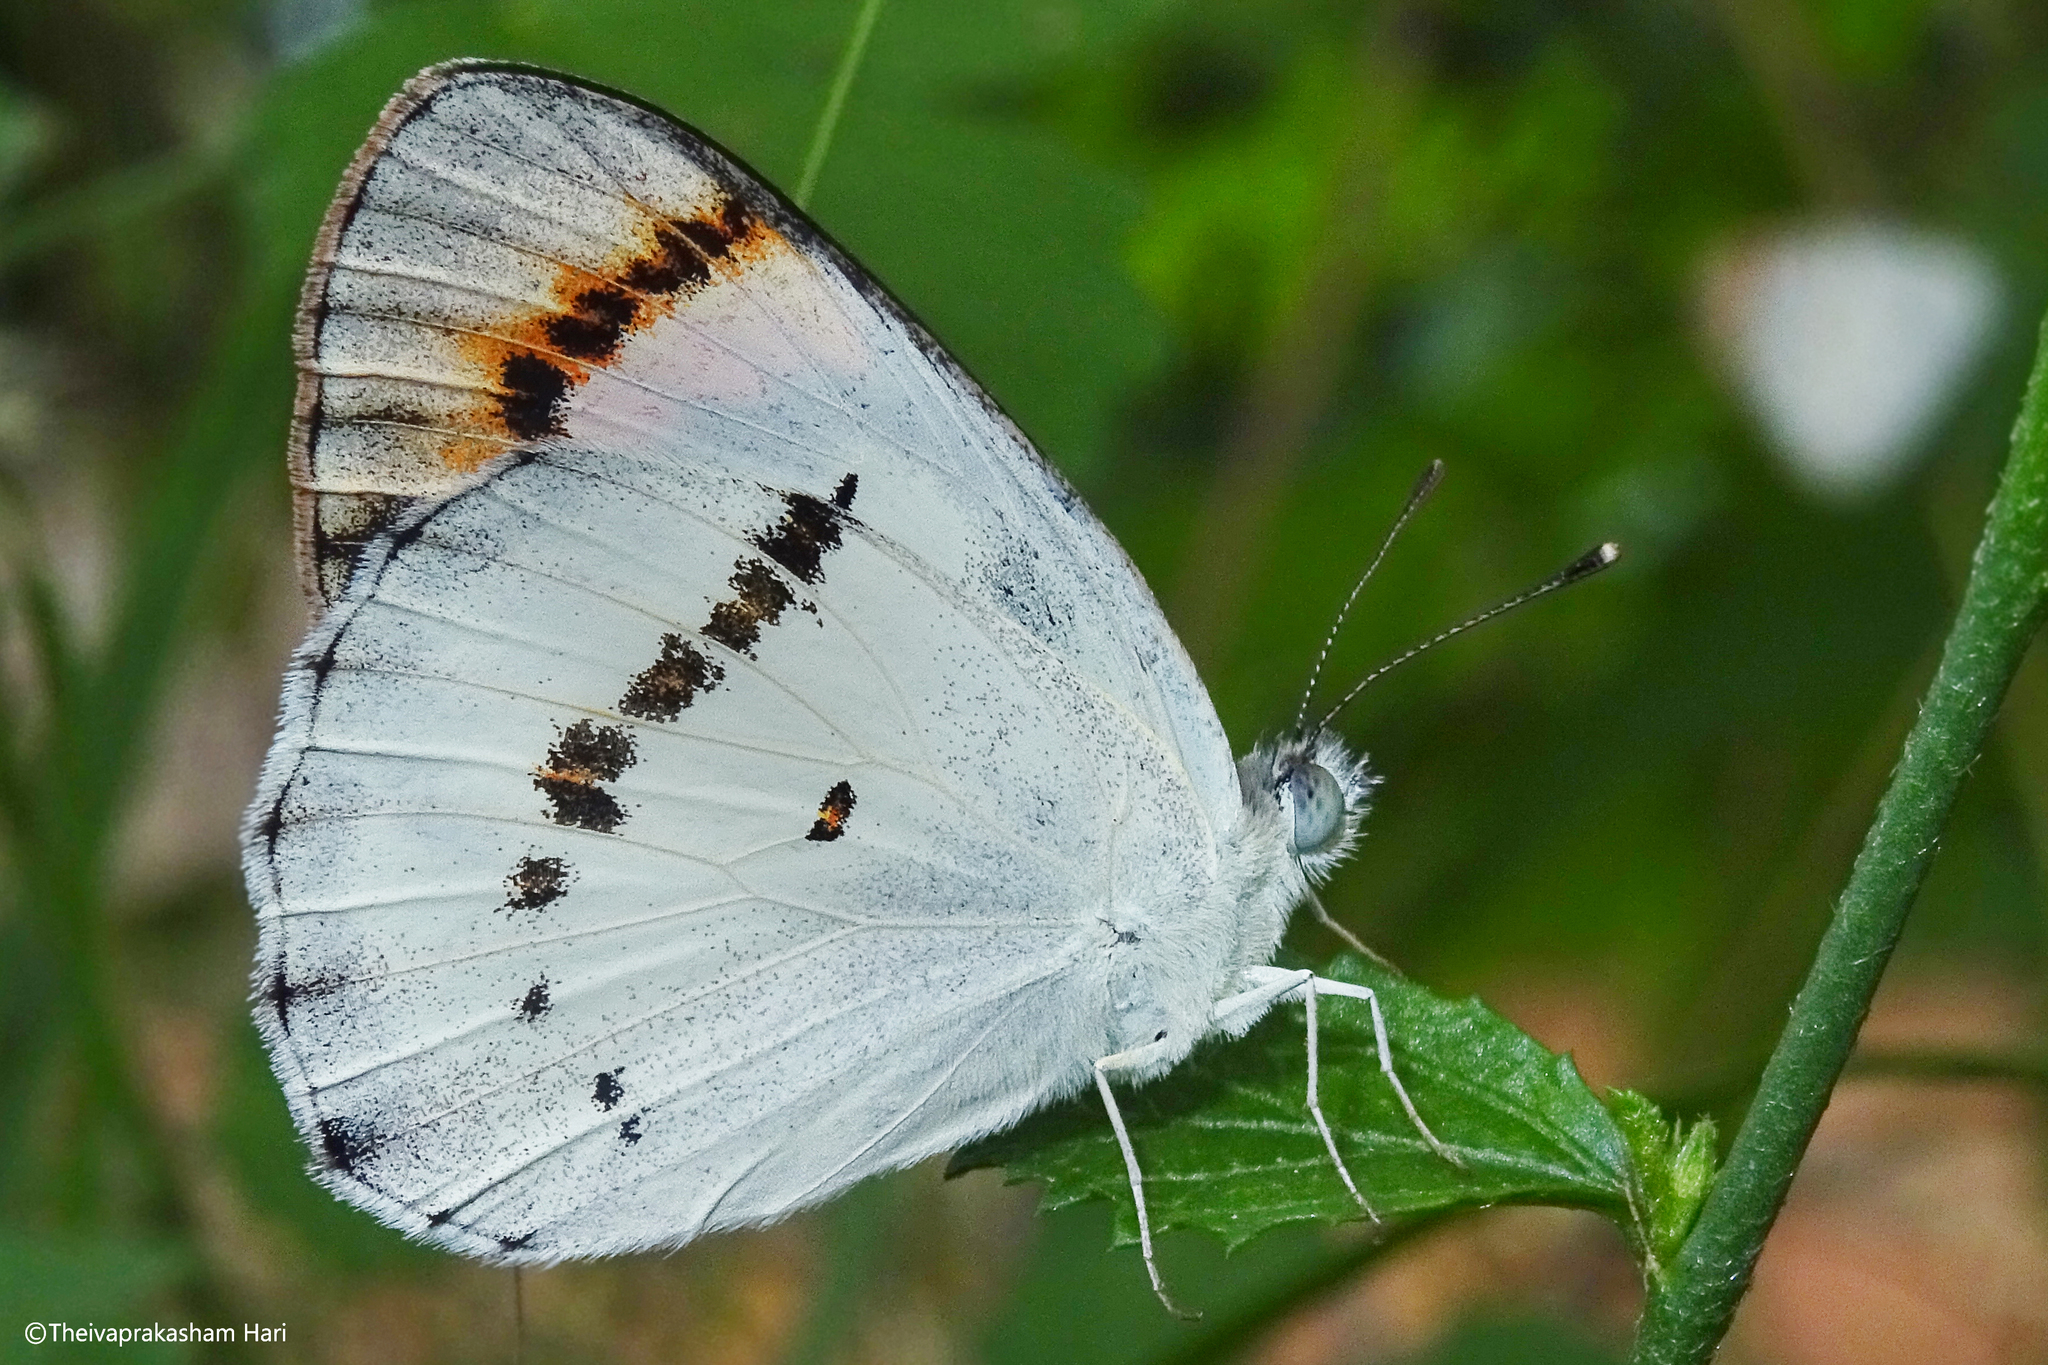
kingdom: Animalia
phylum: Arthropoda
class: Insecta
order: Lepidoptera
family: Pieridae
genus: Colotis
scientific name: Colotis danae
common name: Crimson tip
